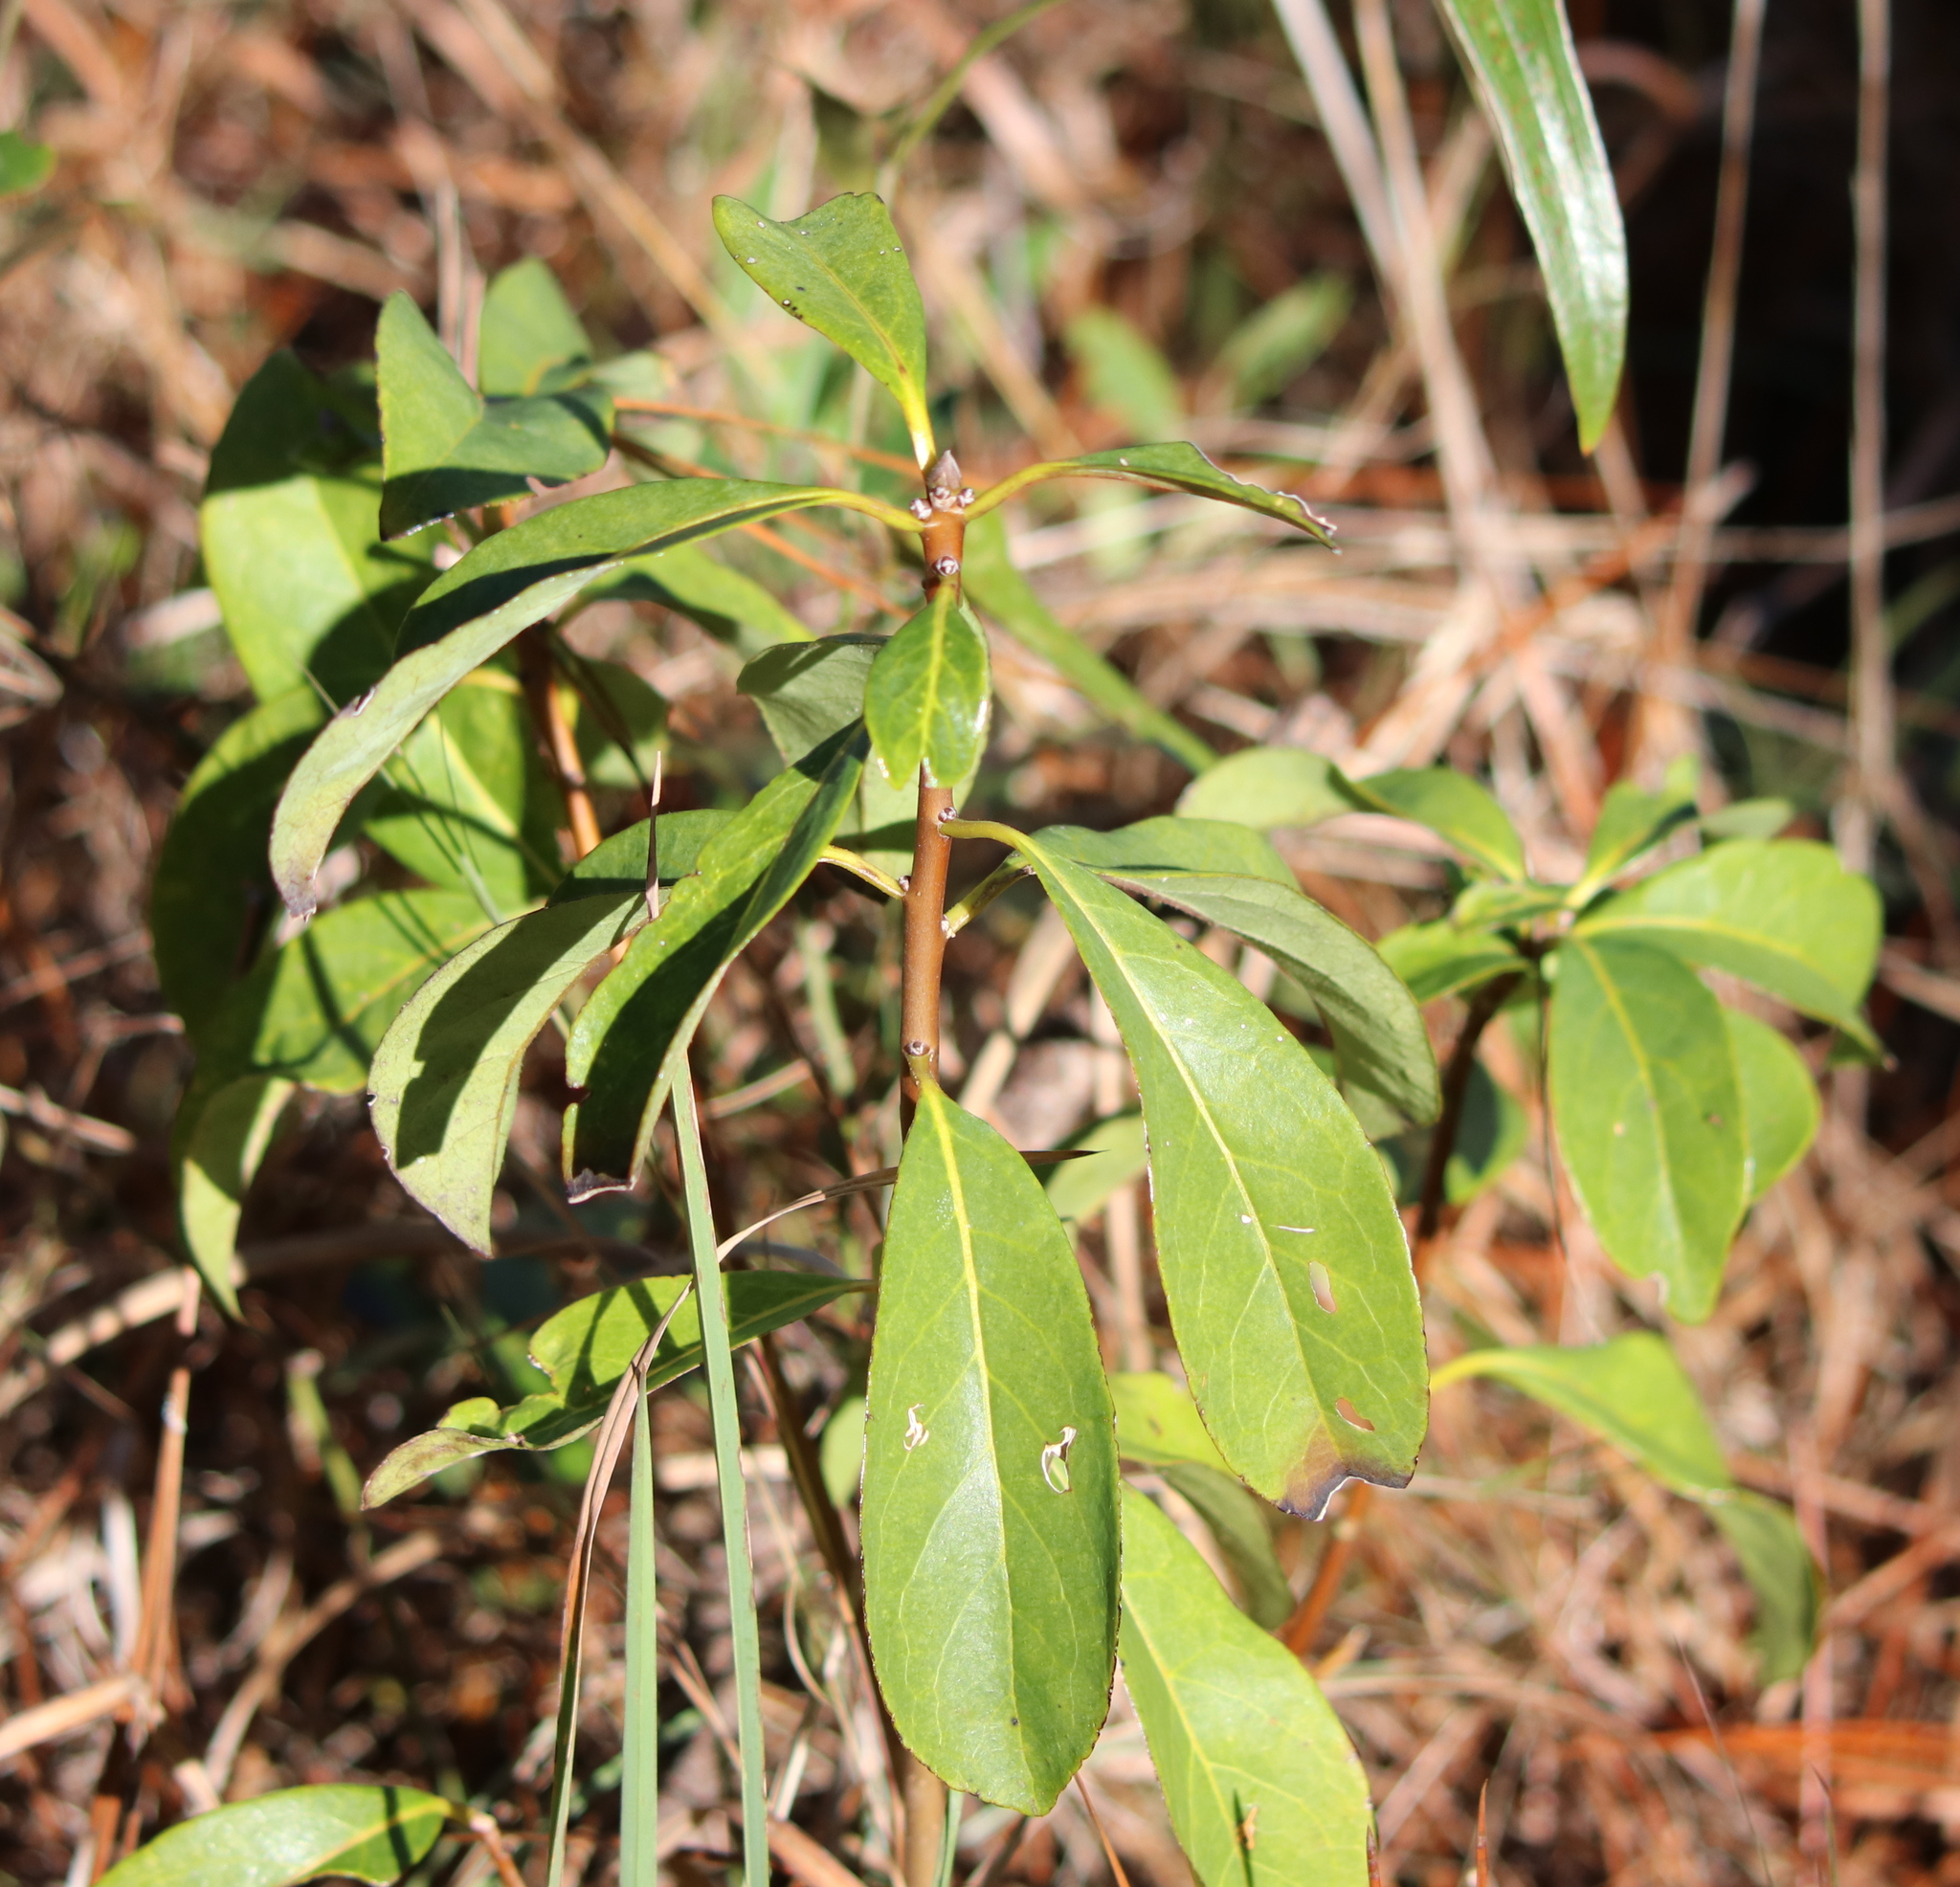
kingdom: Plantae
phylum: Tracheophyta
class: Magnoliopsida
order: Ericales
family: Symplocaceae
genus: Symplocos
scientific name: Symplocos tinctoria
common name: Horse-sugar
